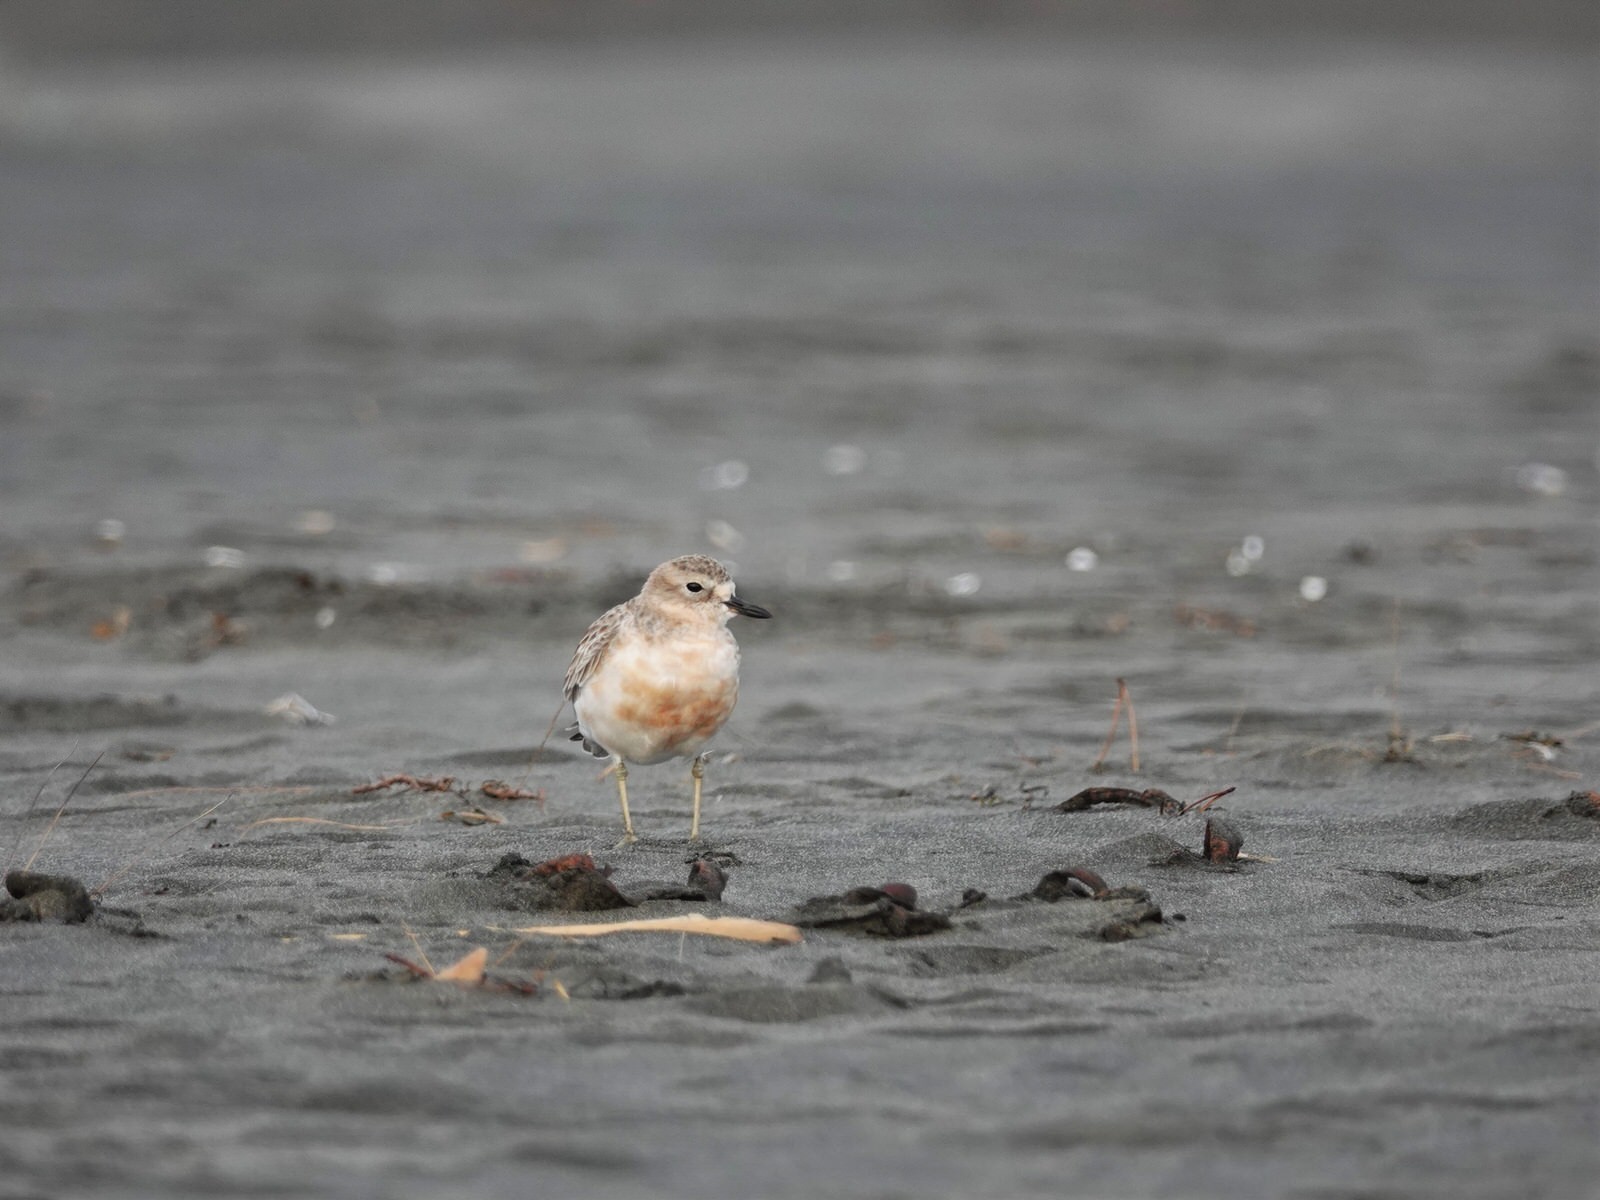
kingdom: Animalia
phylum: Chordata
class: Aves
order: Charadriiformes
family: Charadriidae
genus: Anarhynchus
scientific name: Anarhynchus
